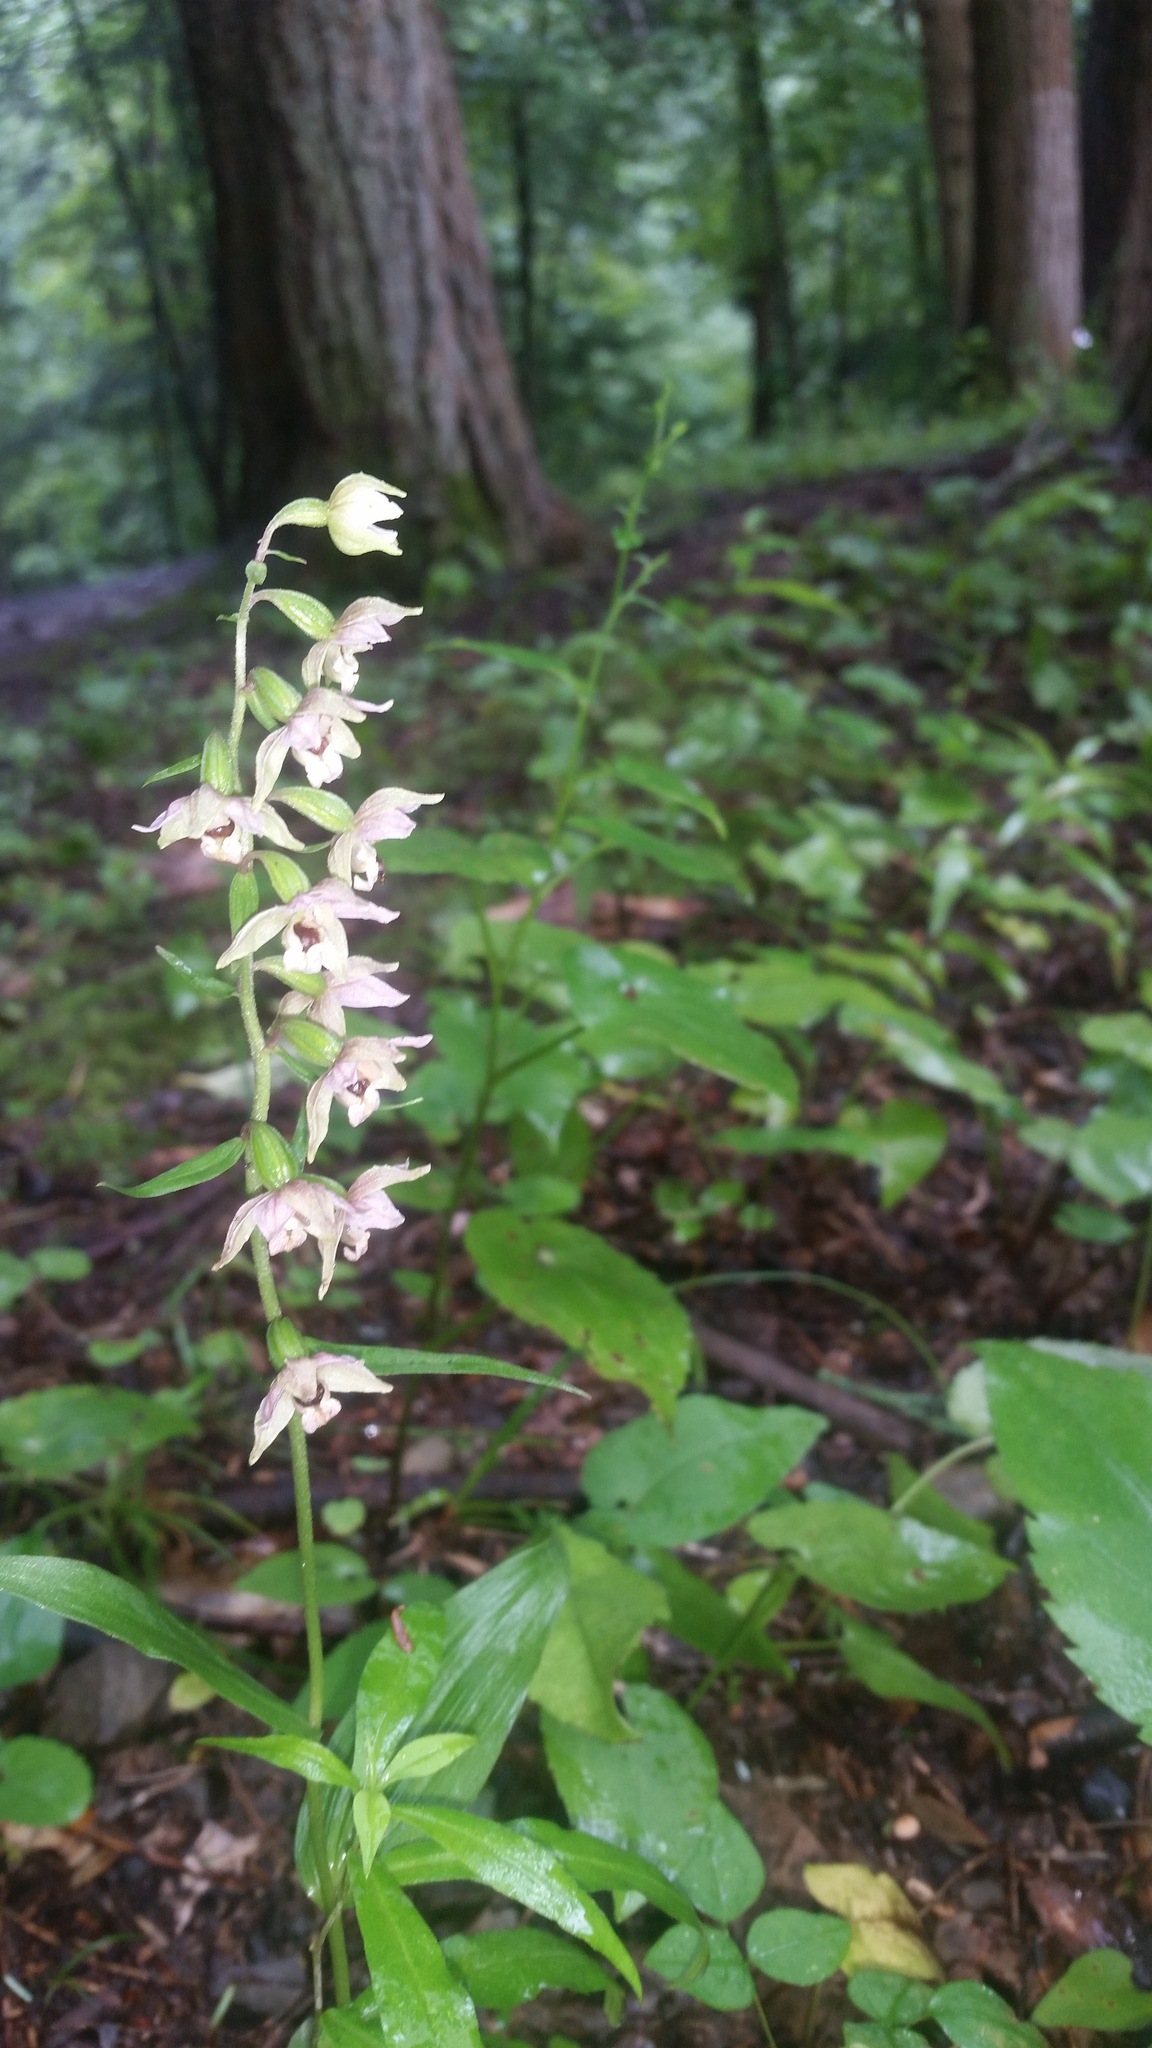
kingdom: Plantae
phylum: Tracheophyta
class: Liliopsida
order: Asparagales
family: Orchidaceae
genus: Epipactis
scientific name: Epipactis helleborine
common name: Broad-leaved helleborine
